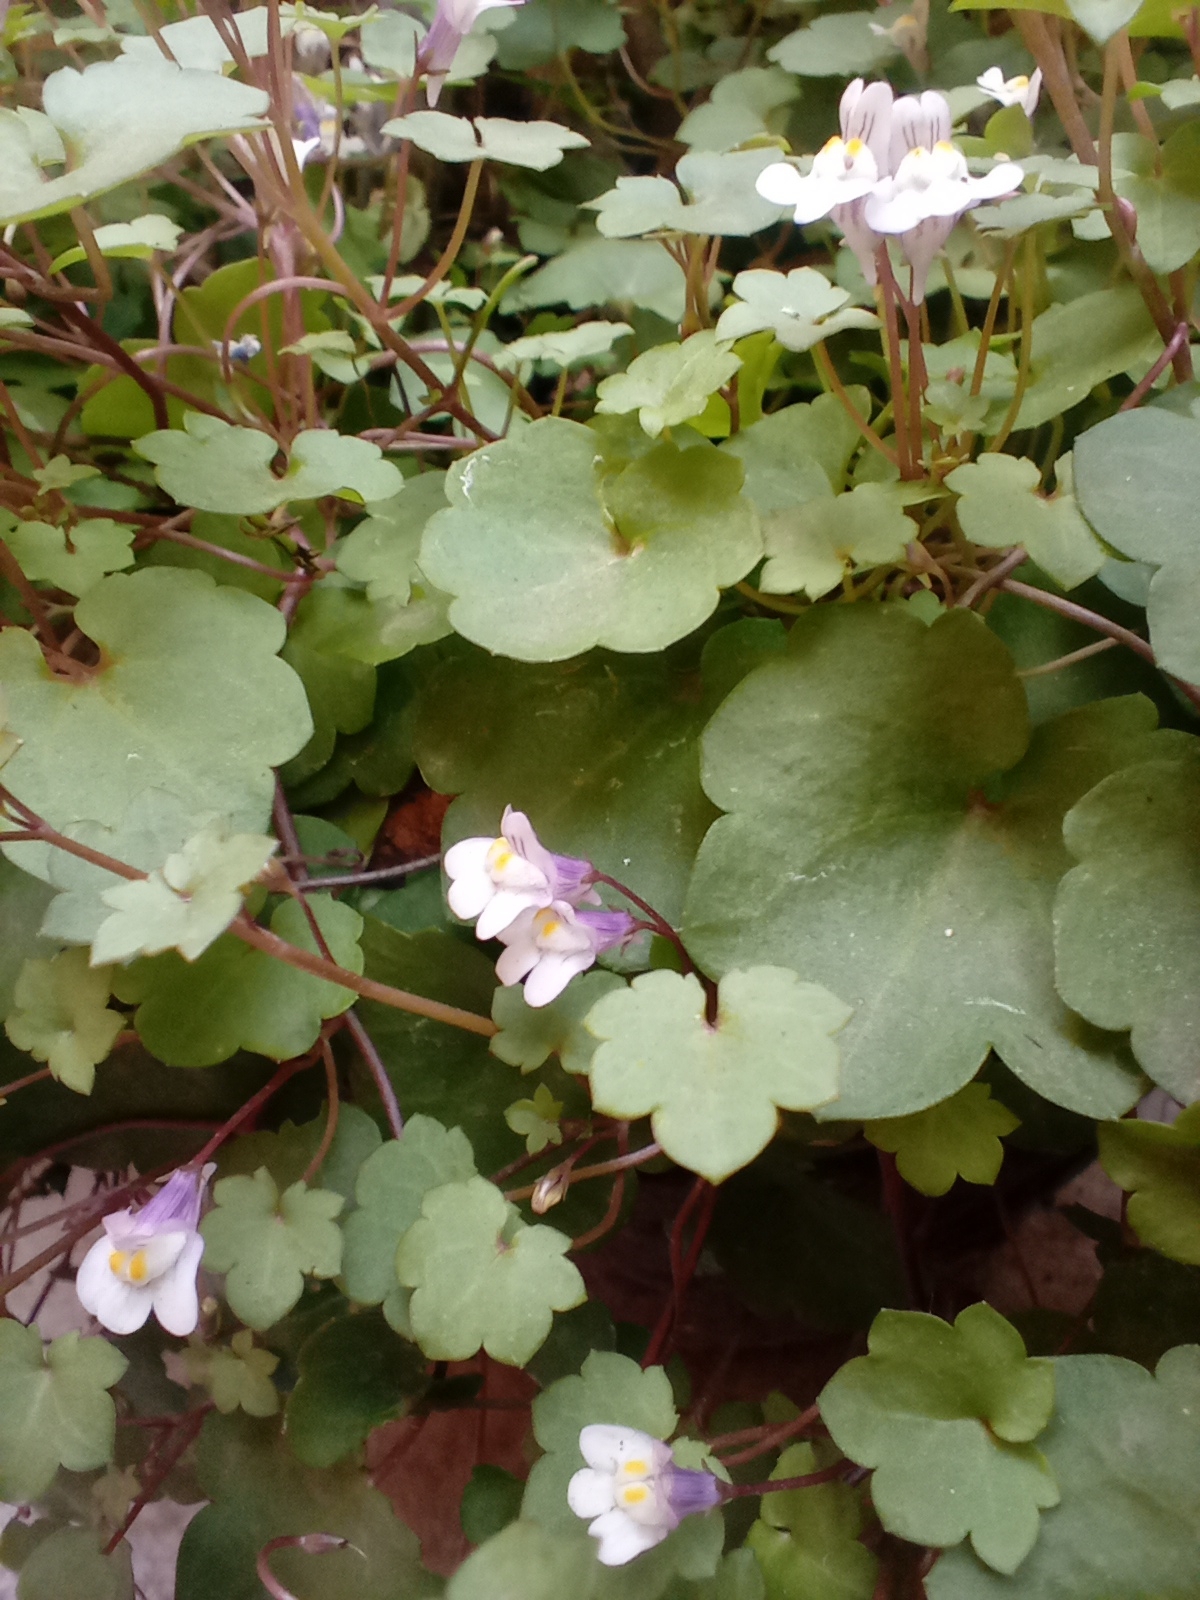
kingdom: Plantae
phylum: Tracheophyta
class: Magnoliopsida
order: Lamiales
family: Plantaginaceae
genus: Cymbalaria
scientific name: Cymbalaria muralis
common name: Ivy-leaved toadflax
